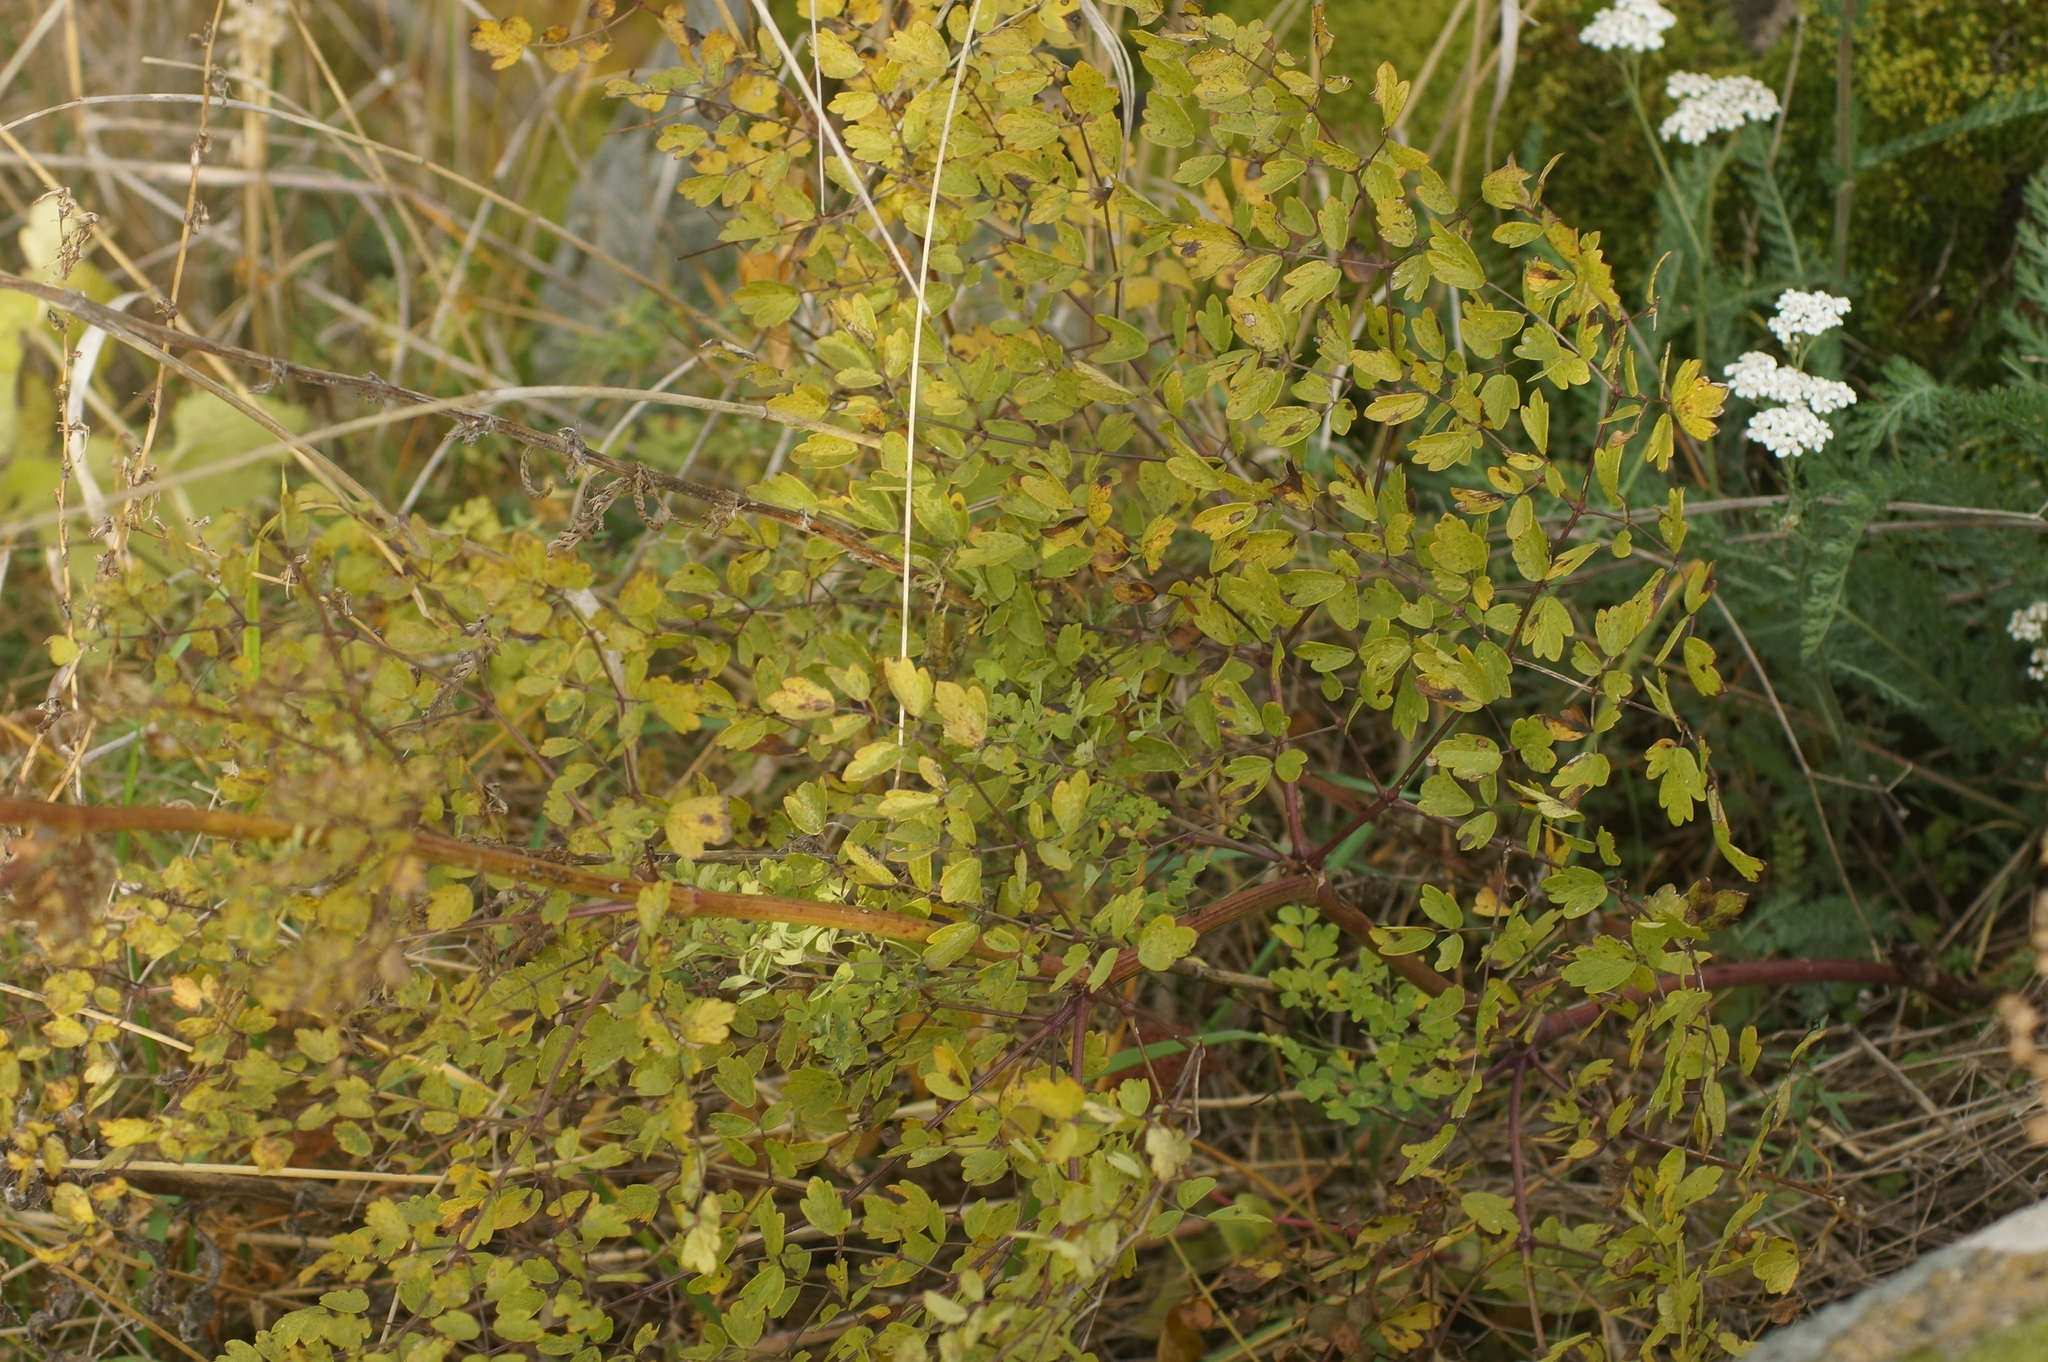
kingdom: Plantae
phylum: Tracheophyta
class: Magnoliopsida
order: Ranunculales
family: Ranunculaceae
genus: Thalictrum
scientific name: Thalictrum minus
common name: Lesser meadow-rue
